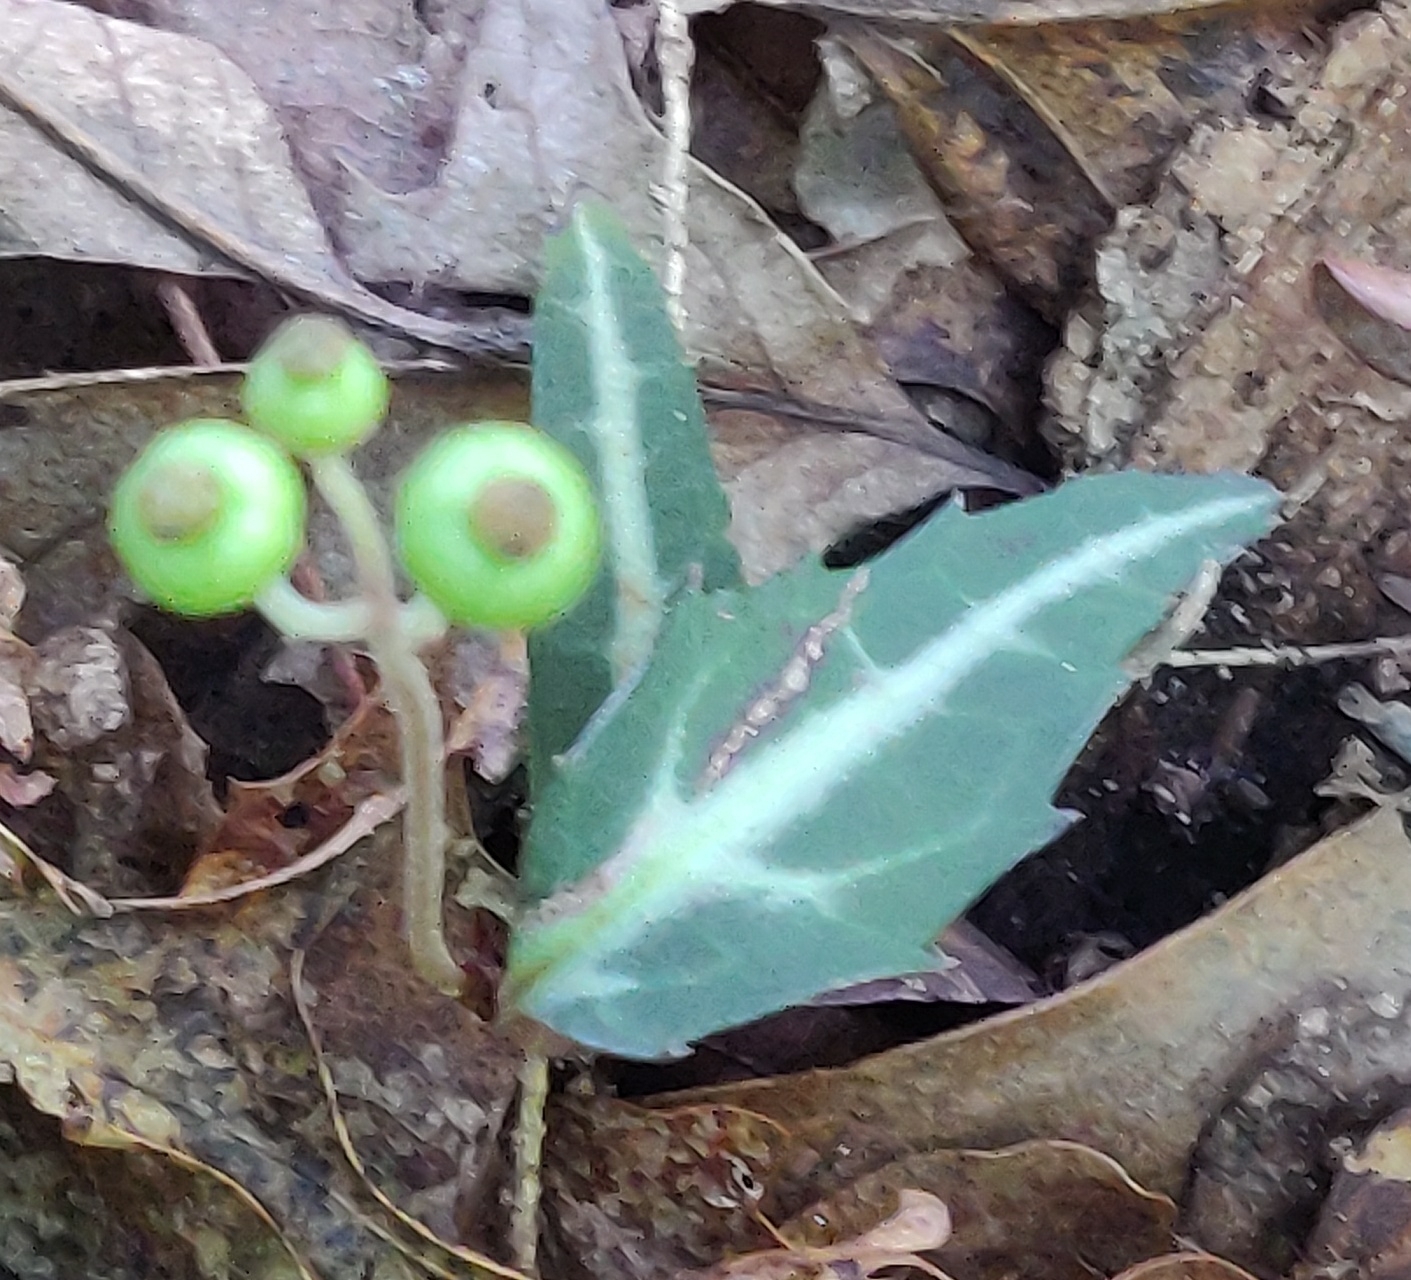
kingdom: Plantae
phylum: Tracheophyta
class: Magnoliopsida
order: Ericales
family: Ericaceae
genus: Chimaphila
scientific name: Chimaphila maculata
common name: Spotted pipsissewa
